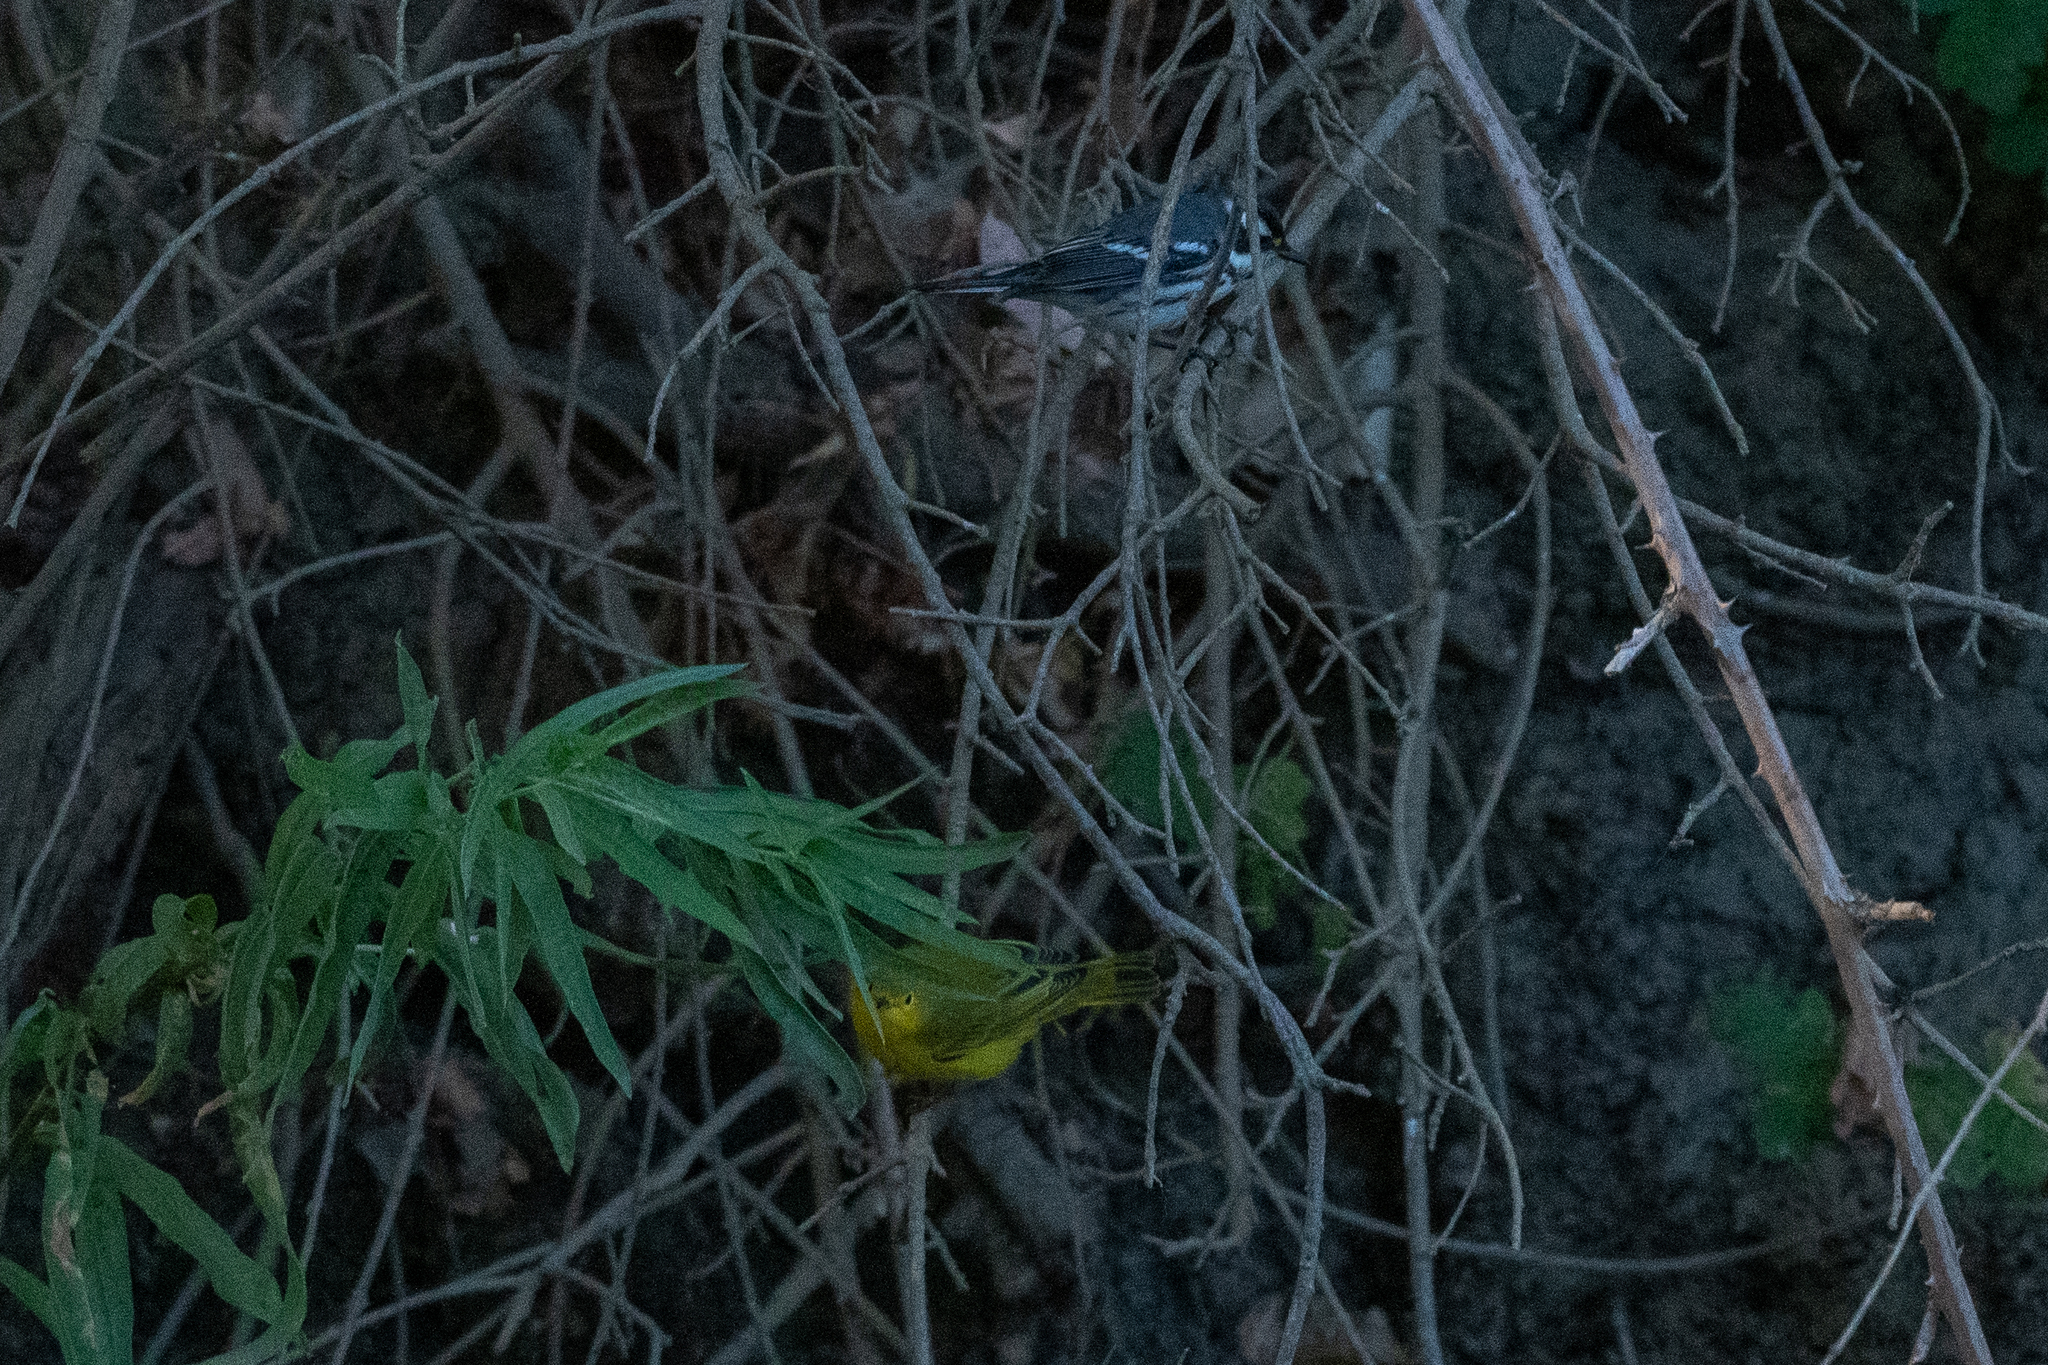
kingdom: Animalia
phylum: Chordata
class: Aves
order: Passeriformes
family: Parulidae
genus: Setophaga
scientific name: Setophaga nigrescens
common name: Black-throated gray warbler
